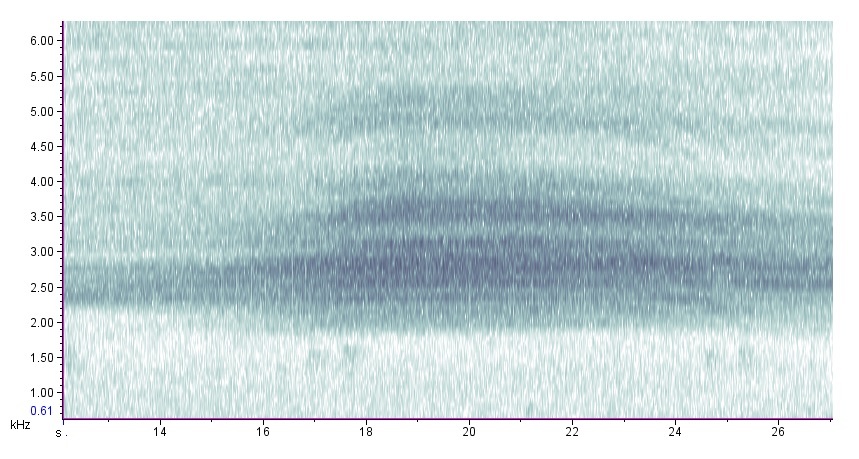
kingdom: Animalia
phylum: Arthropoda
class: Insecta
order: Hemiptera
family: Cicadidae
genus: Diceroprocta
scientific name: Diceroprocta grossa
